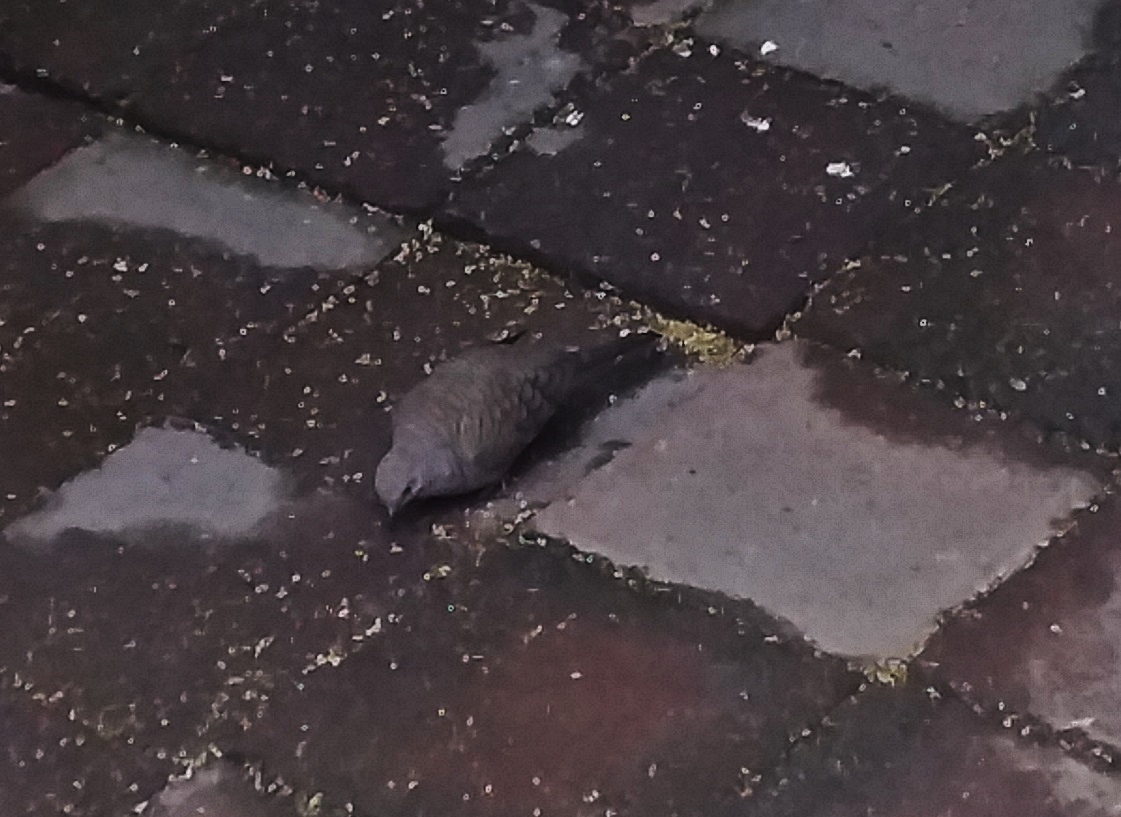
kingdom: Animalia
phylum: Chordata
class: Aves
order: Columbiformes
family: Columbidae
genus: Columbina
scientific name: Columbina inca
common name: Inca dove
